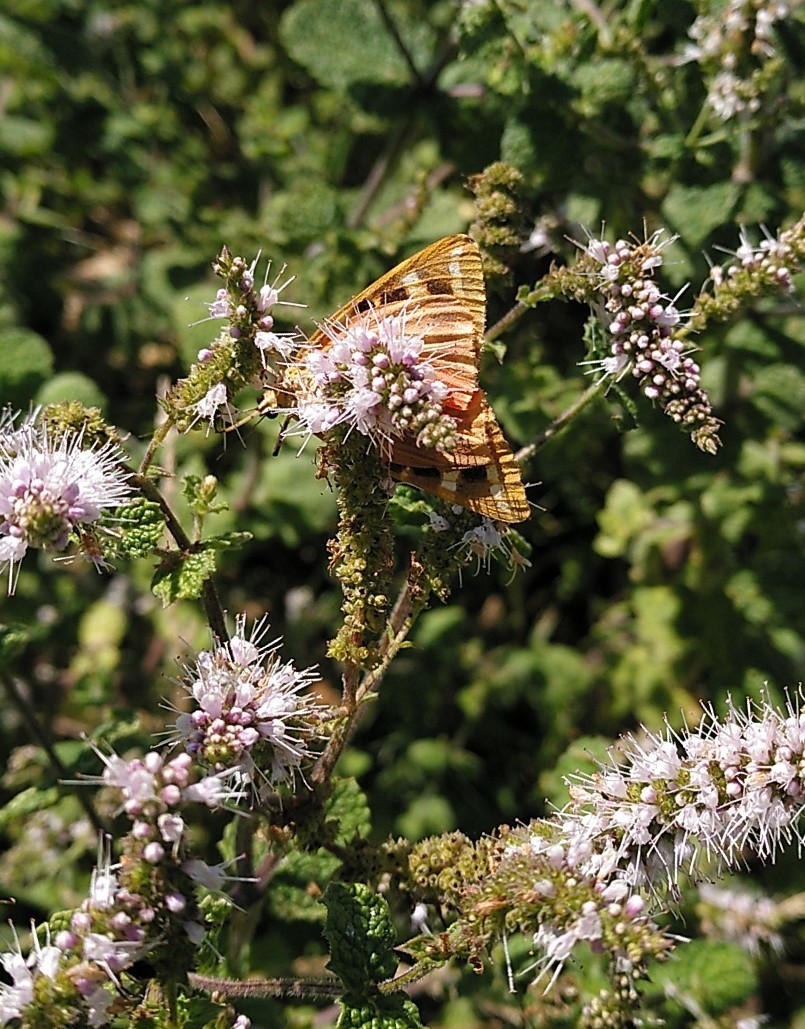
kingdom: Animalia
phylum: Arthropoda
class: Insecta
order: Lepidoptera
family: Erebidae
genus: Euplagia
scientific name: Euplagia quadripunctaria
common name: Jersey tiger
